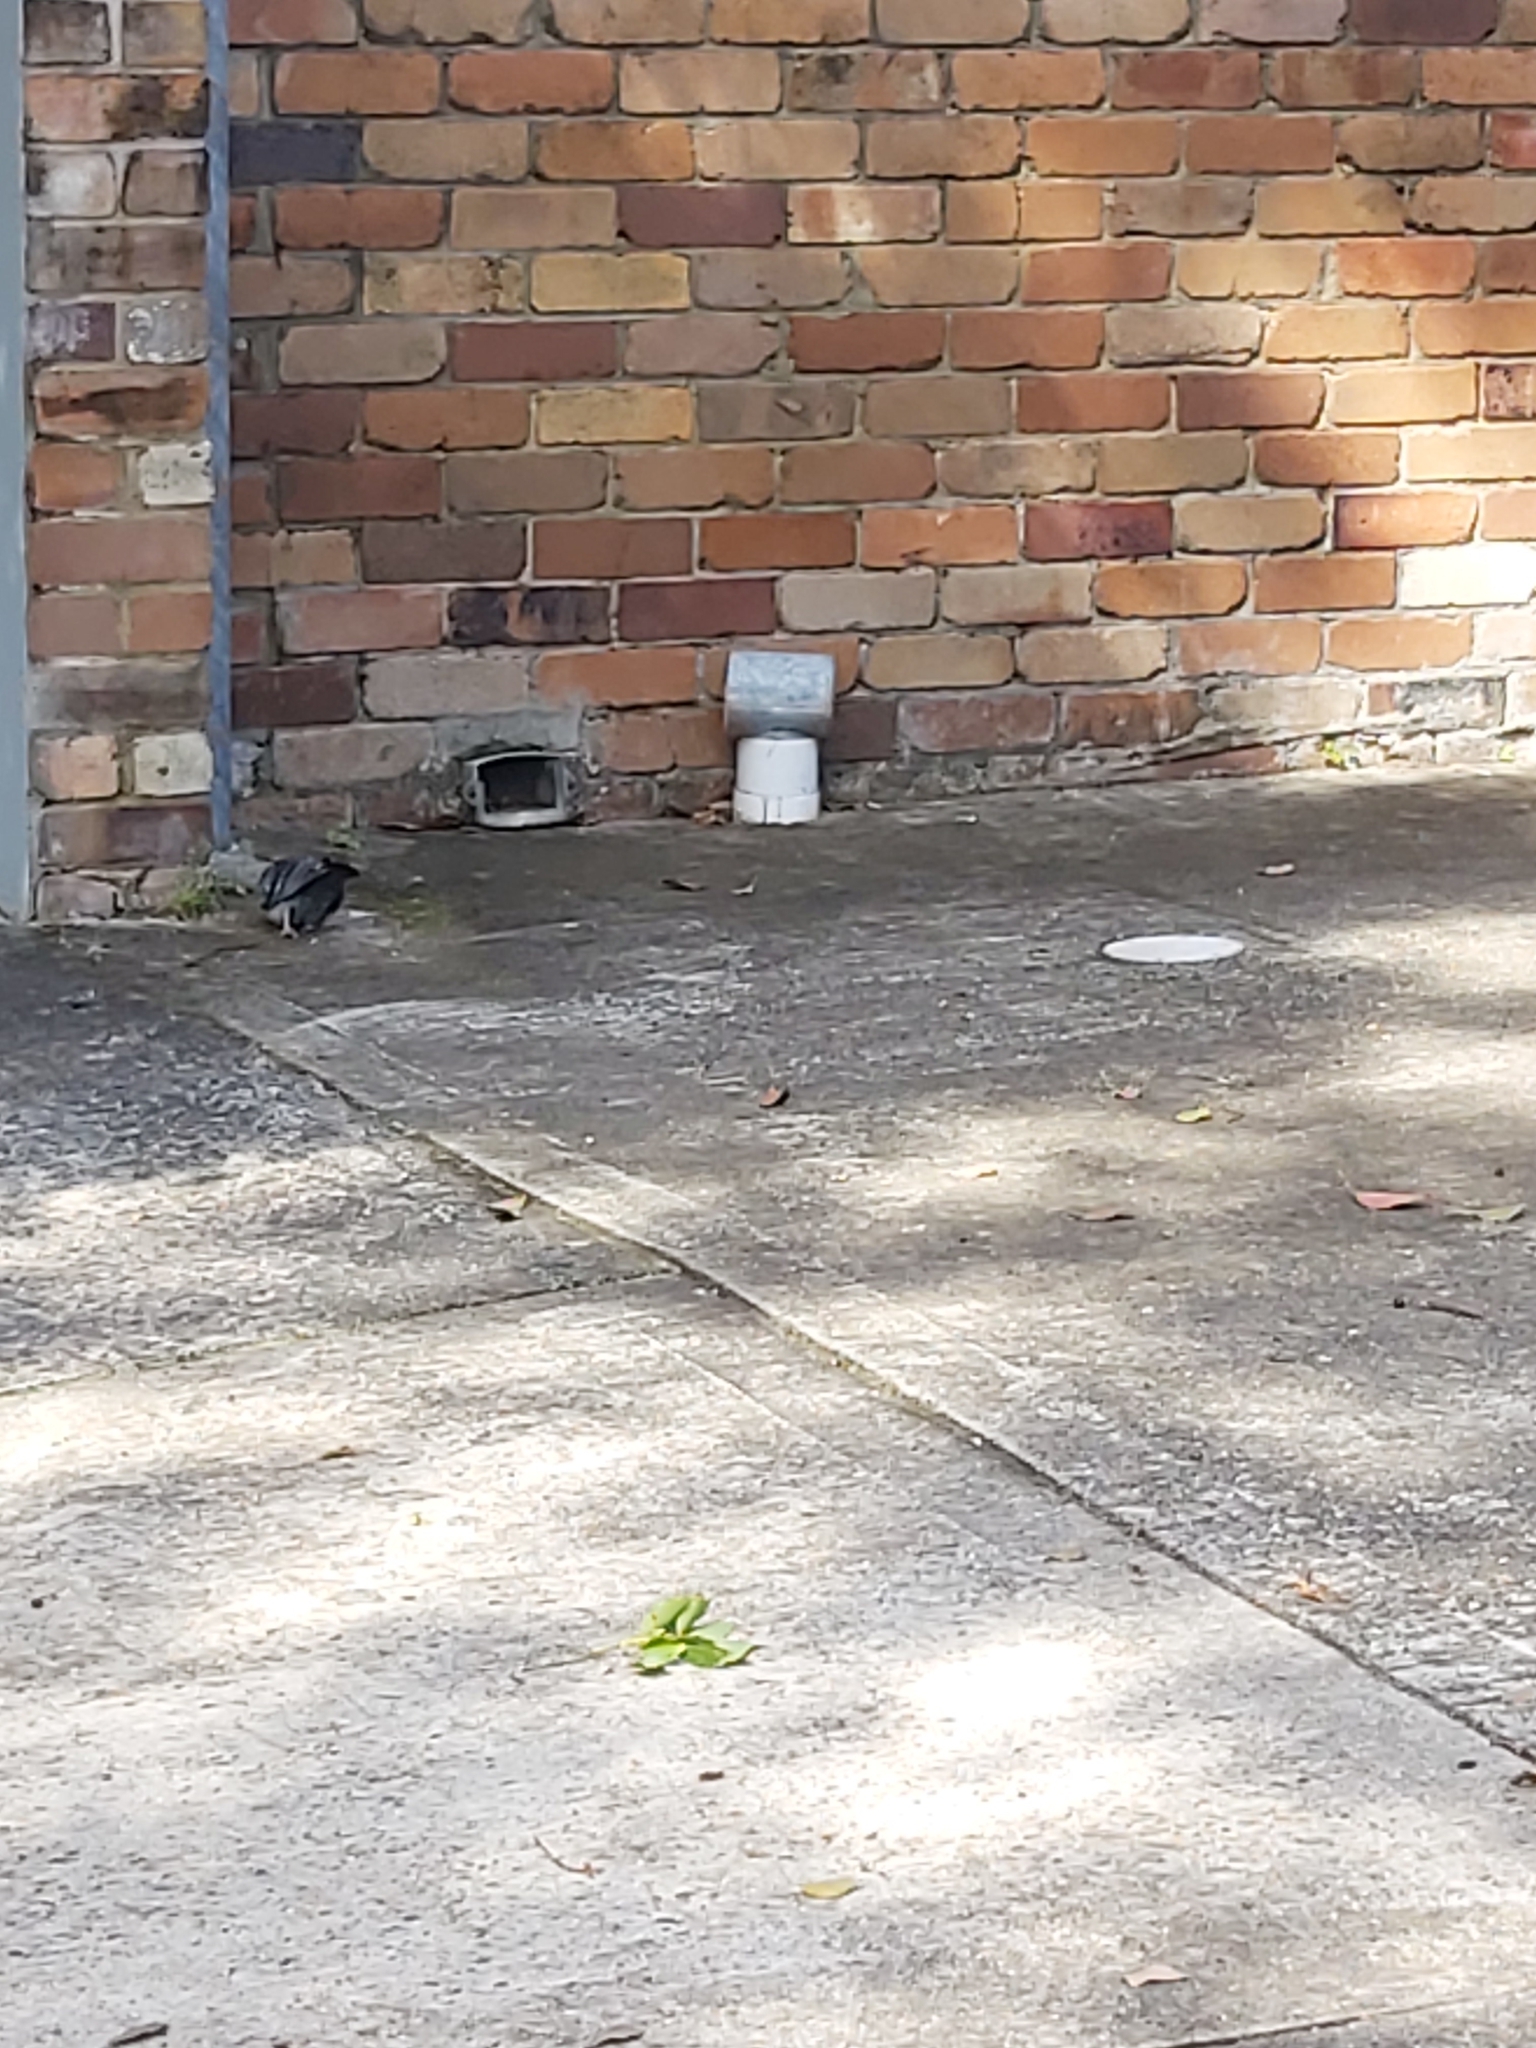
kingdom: Animalia
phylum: Chordata
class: Aves
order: Columbiformes
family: Columbidae
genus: Columba
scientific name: Columba livia
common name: Rock pigeon
